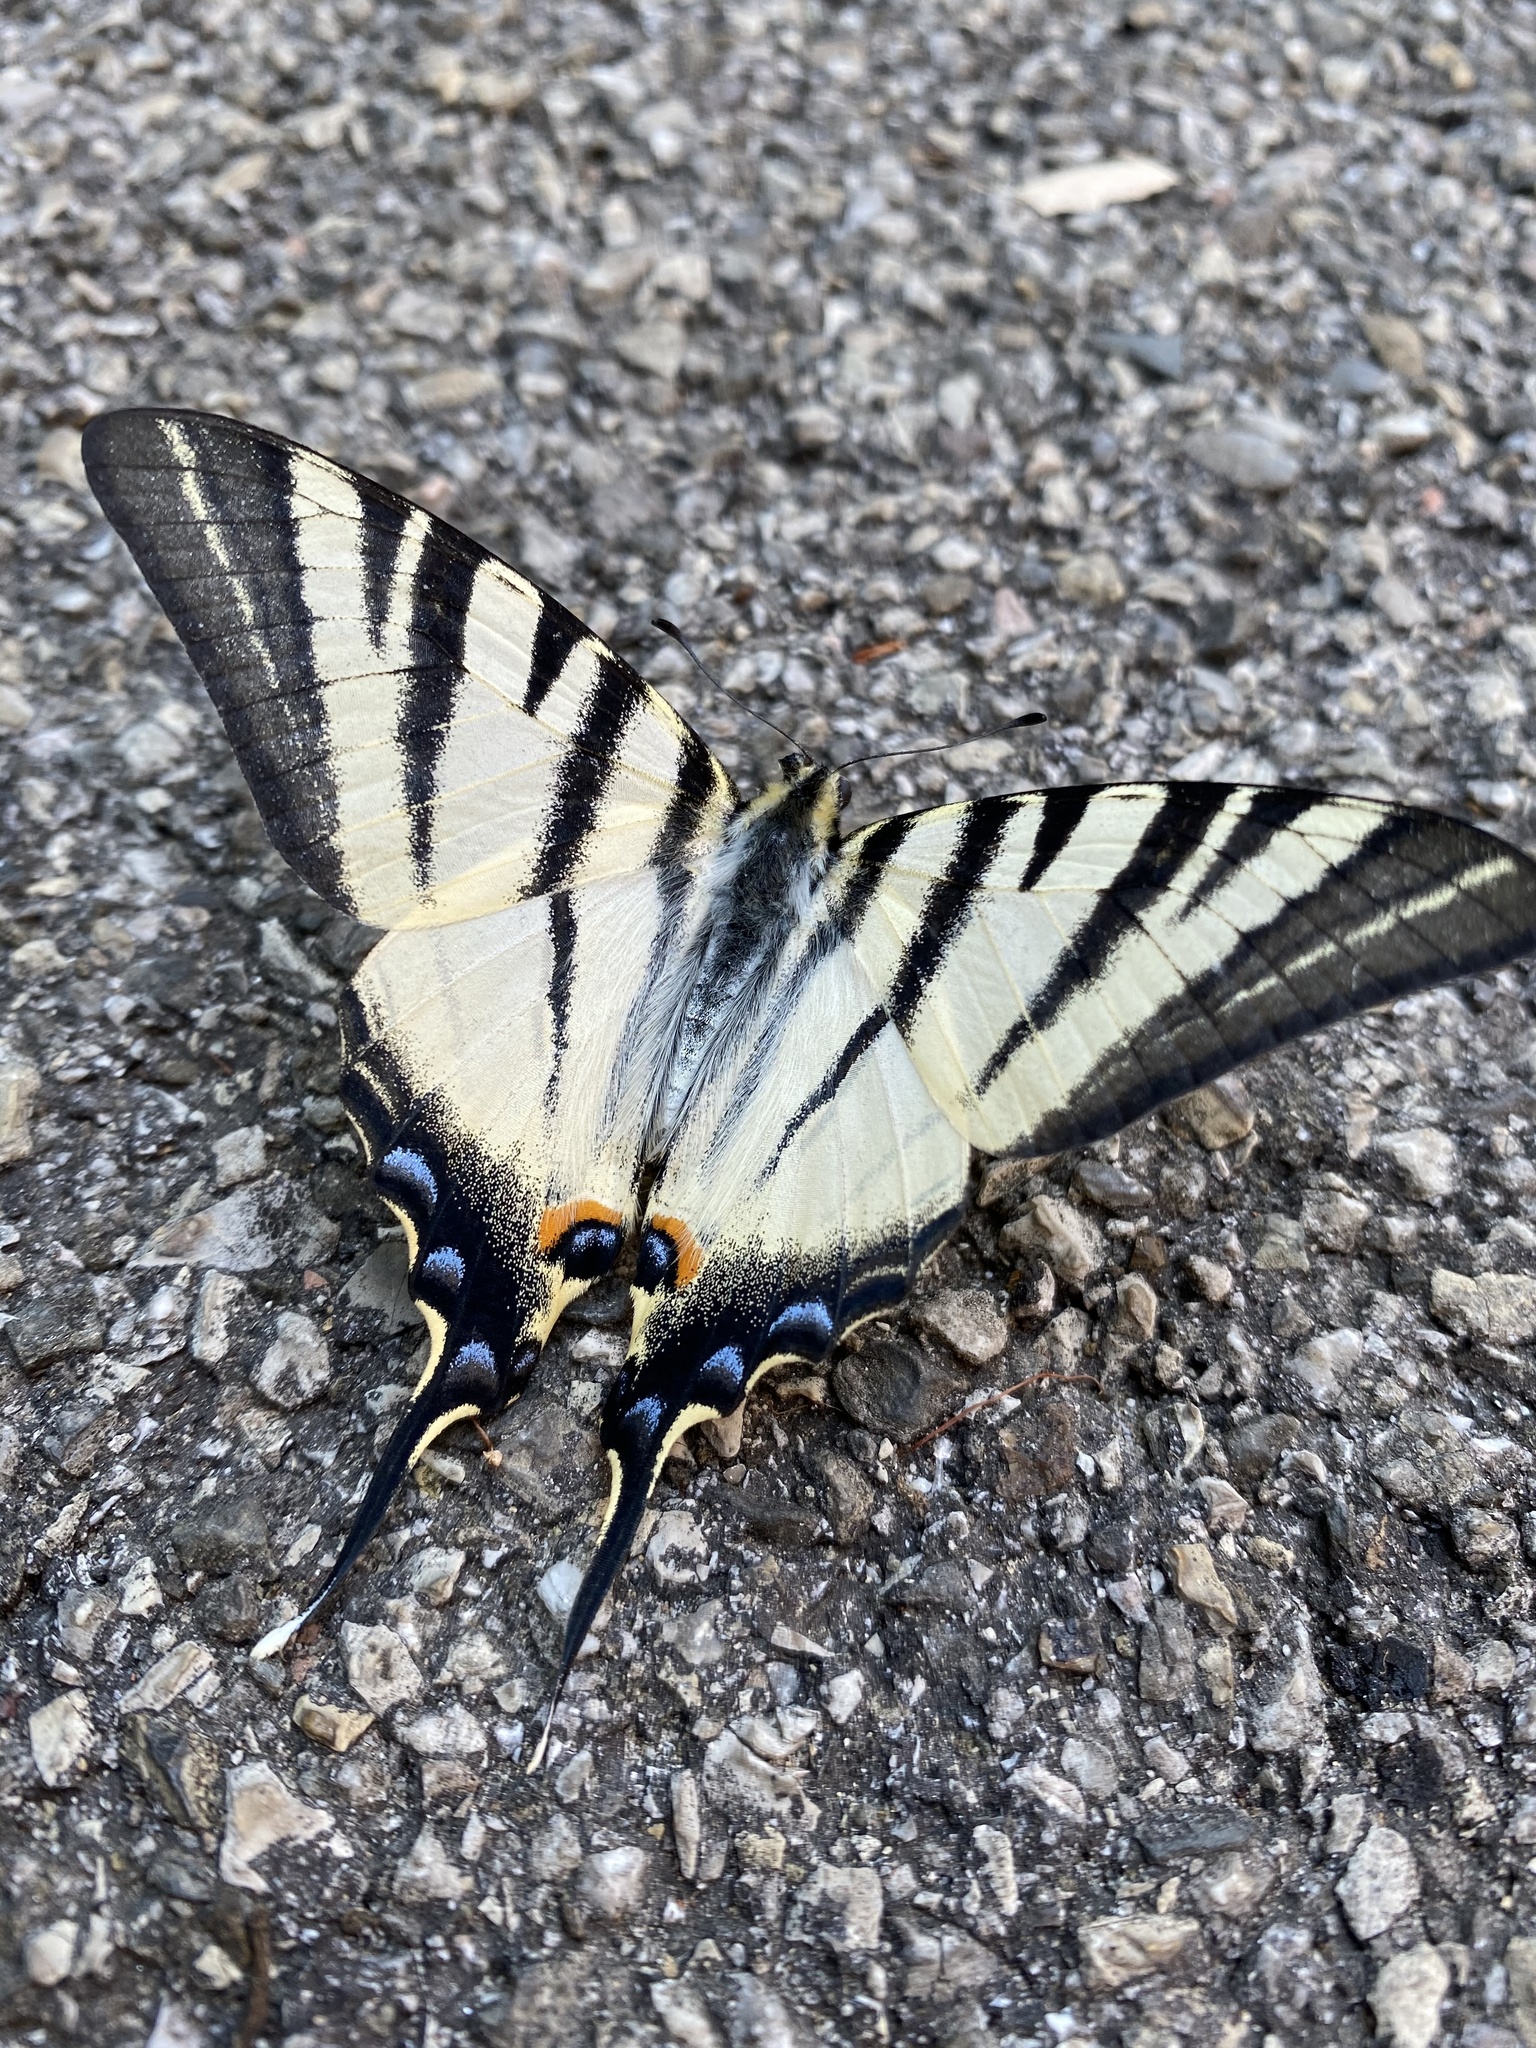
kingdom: Animalia
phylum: Arthropoda
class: Insecta
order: Lepidoptera
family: Papilionidae
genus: Iphiclides
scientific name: Iphiclides podalirius
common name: Scarce swallowtail
